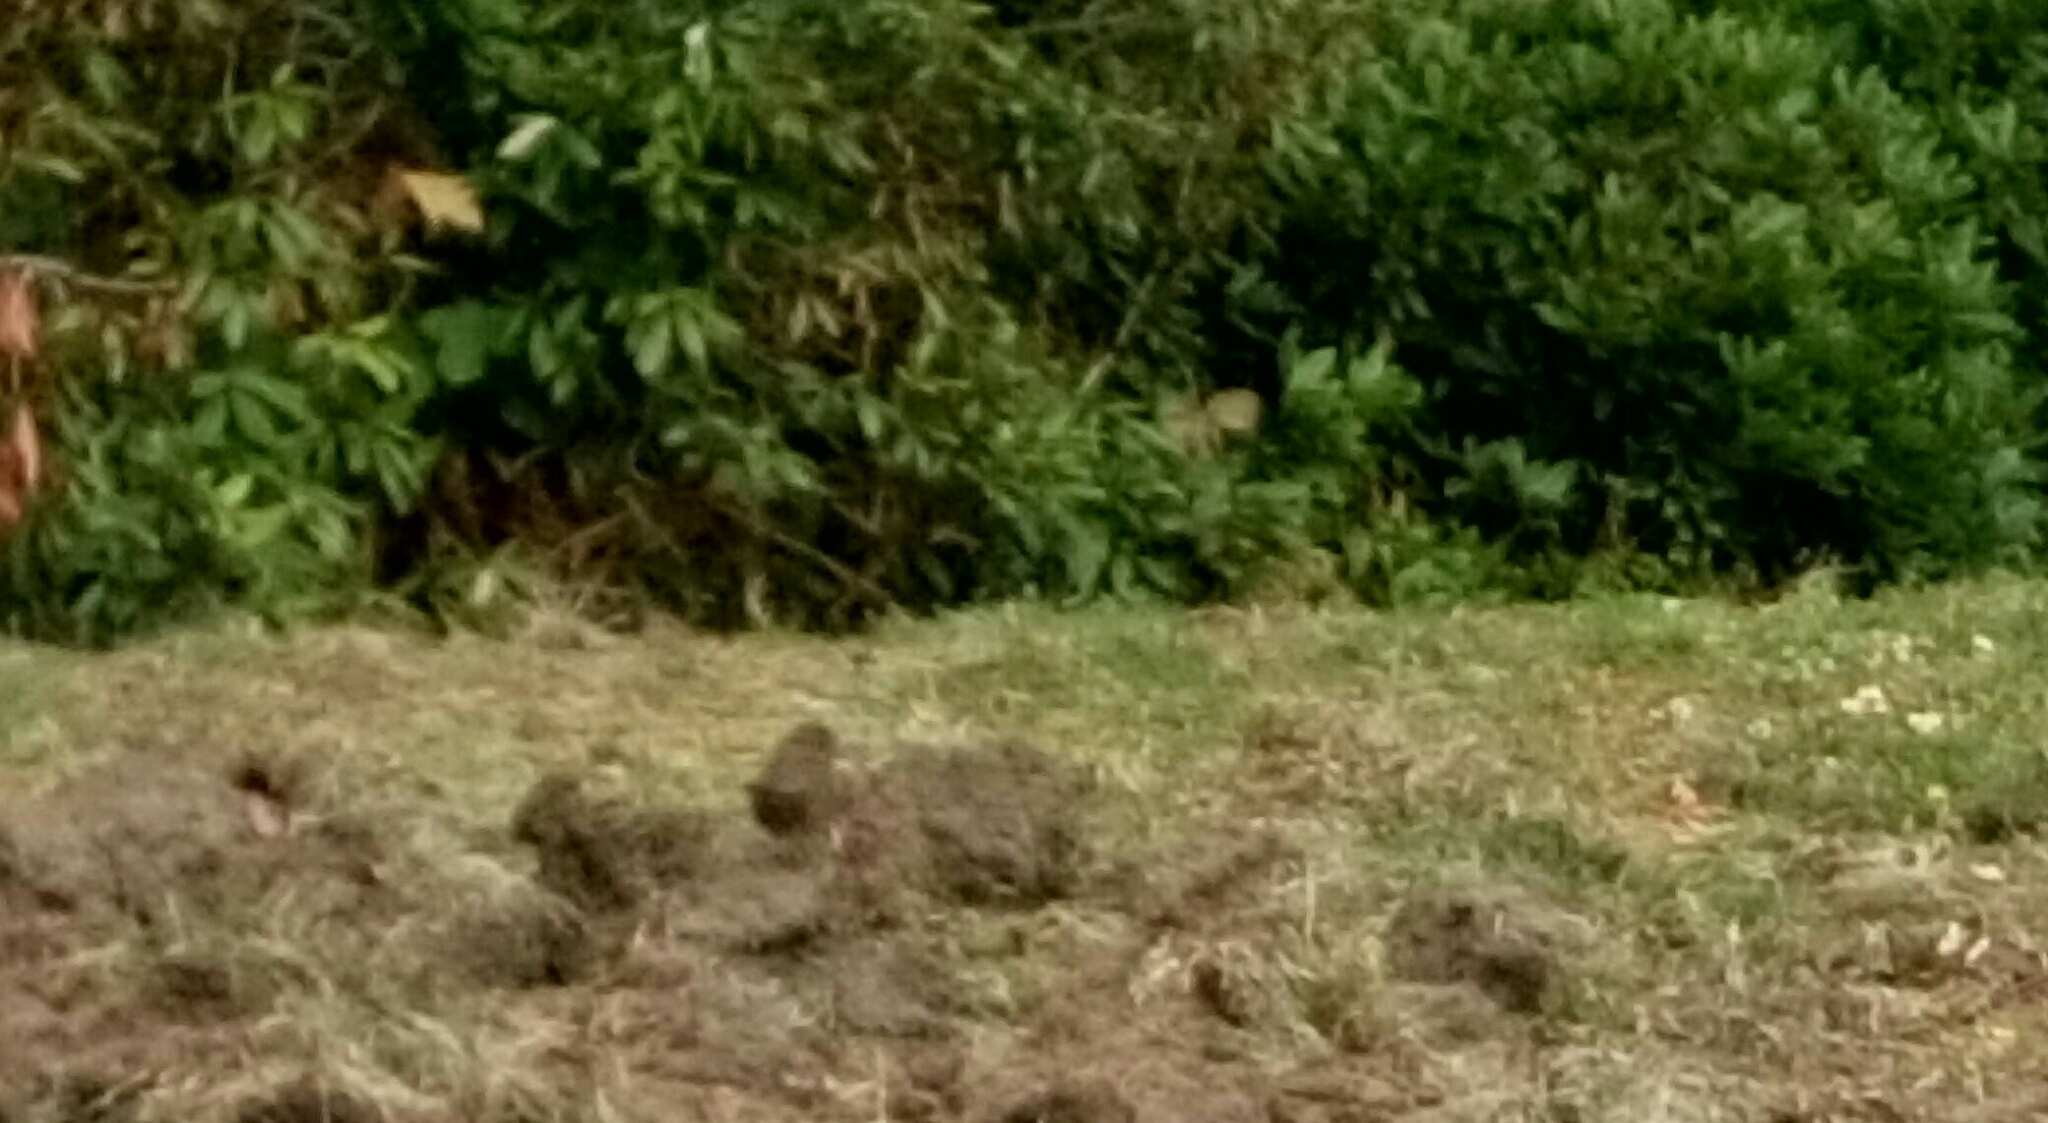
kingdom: Animalia
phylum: Chordata
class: Aves
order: Passeriformes
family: Passerellidae
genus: Melospiza
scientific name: Melospiza melodia
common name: Song sparrow
